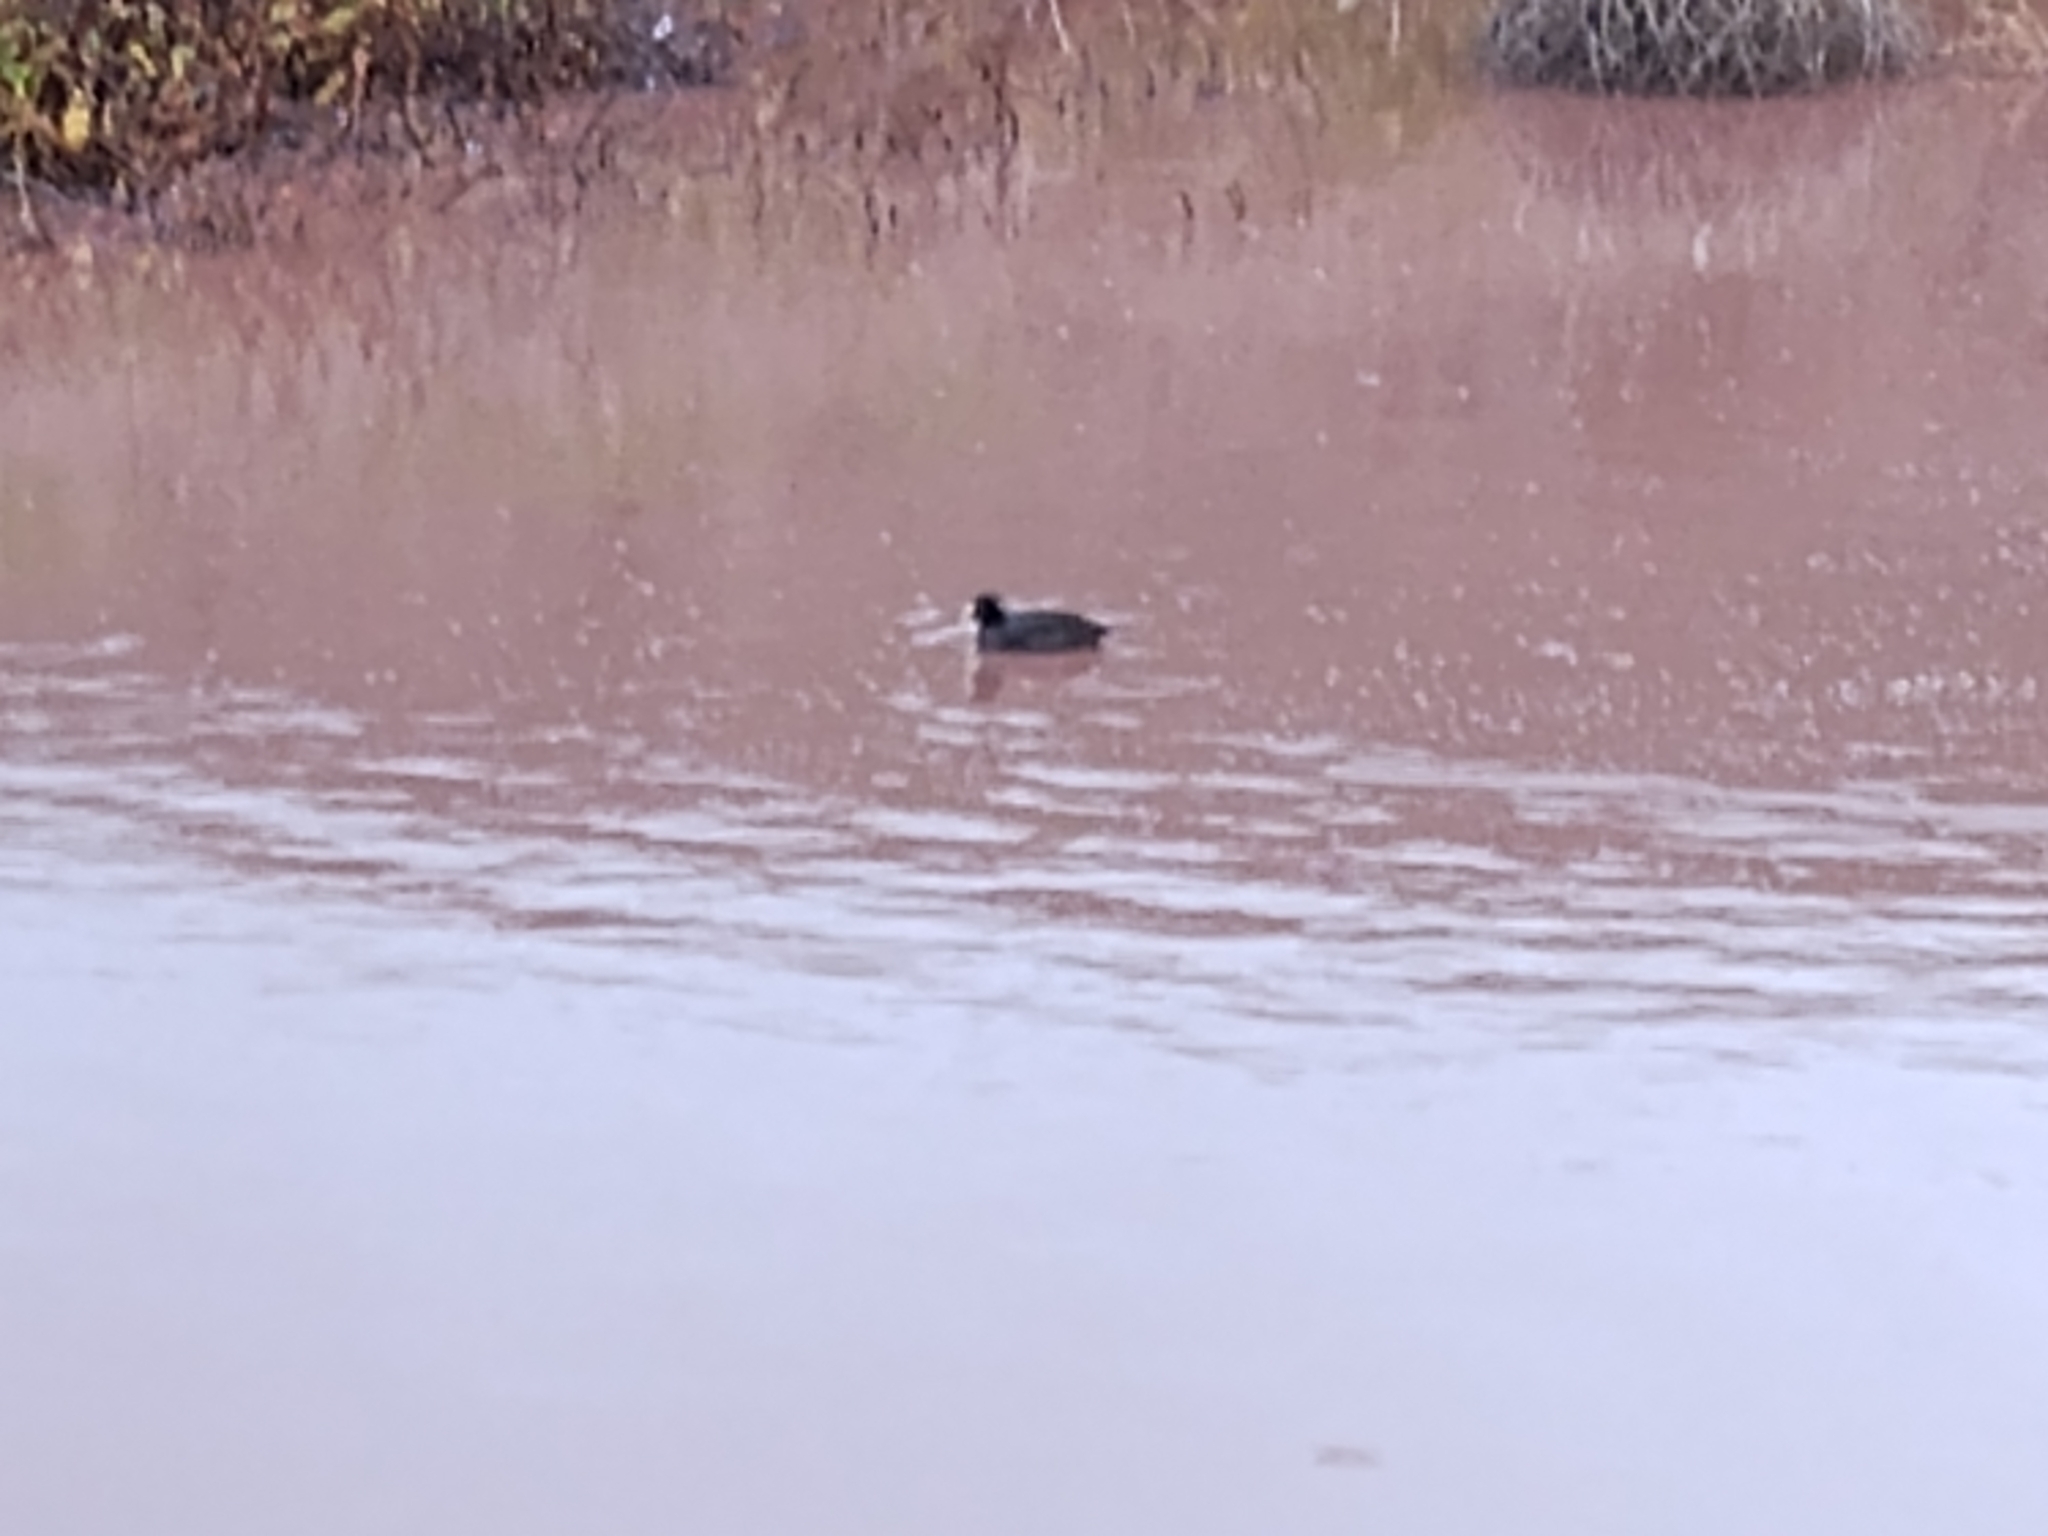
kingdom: Animalia
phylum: Chordata
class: Aves
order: Gruiformes
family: Rallidae
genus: Fulica
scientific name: Fulica americana
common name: American coot
